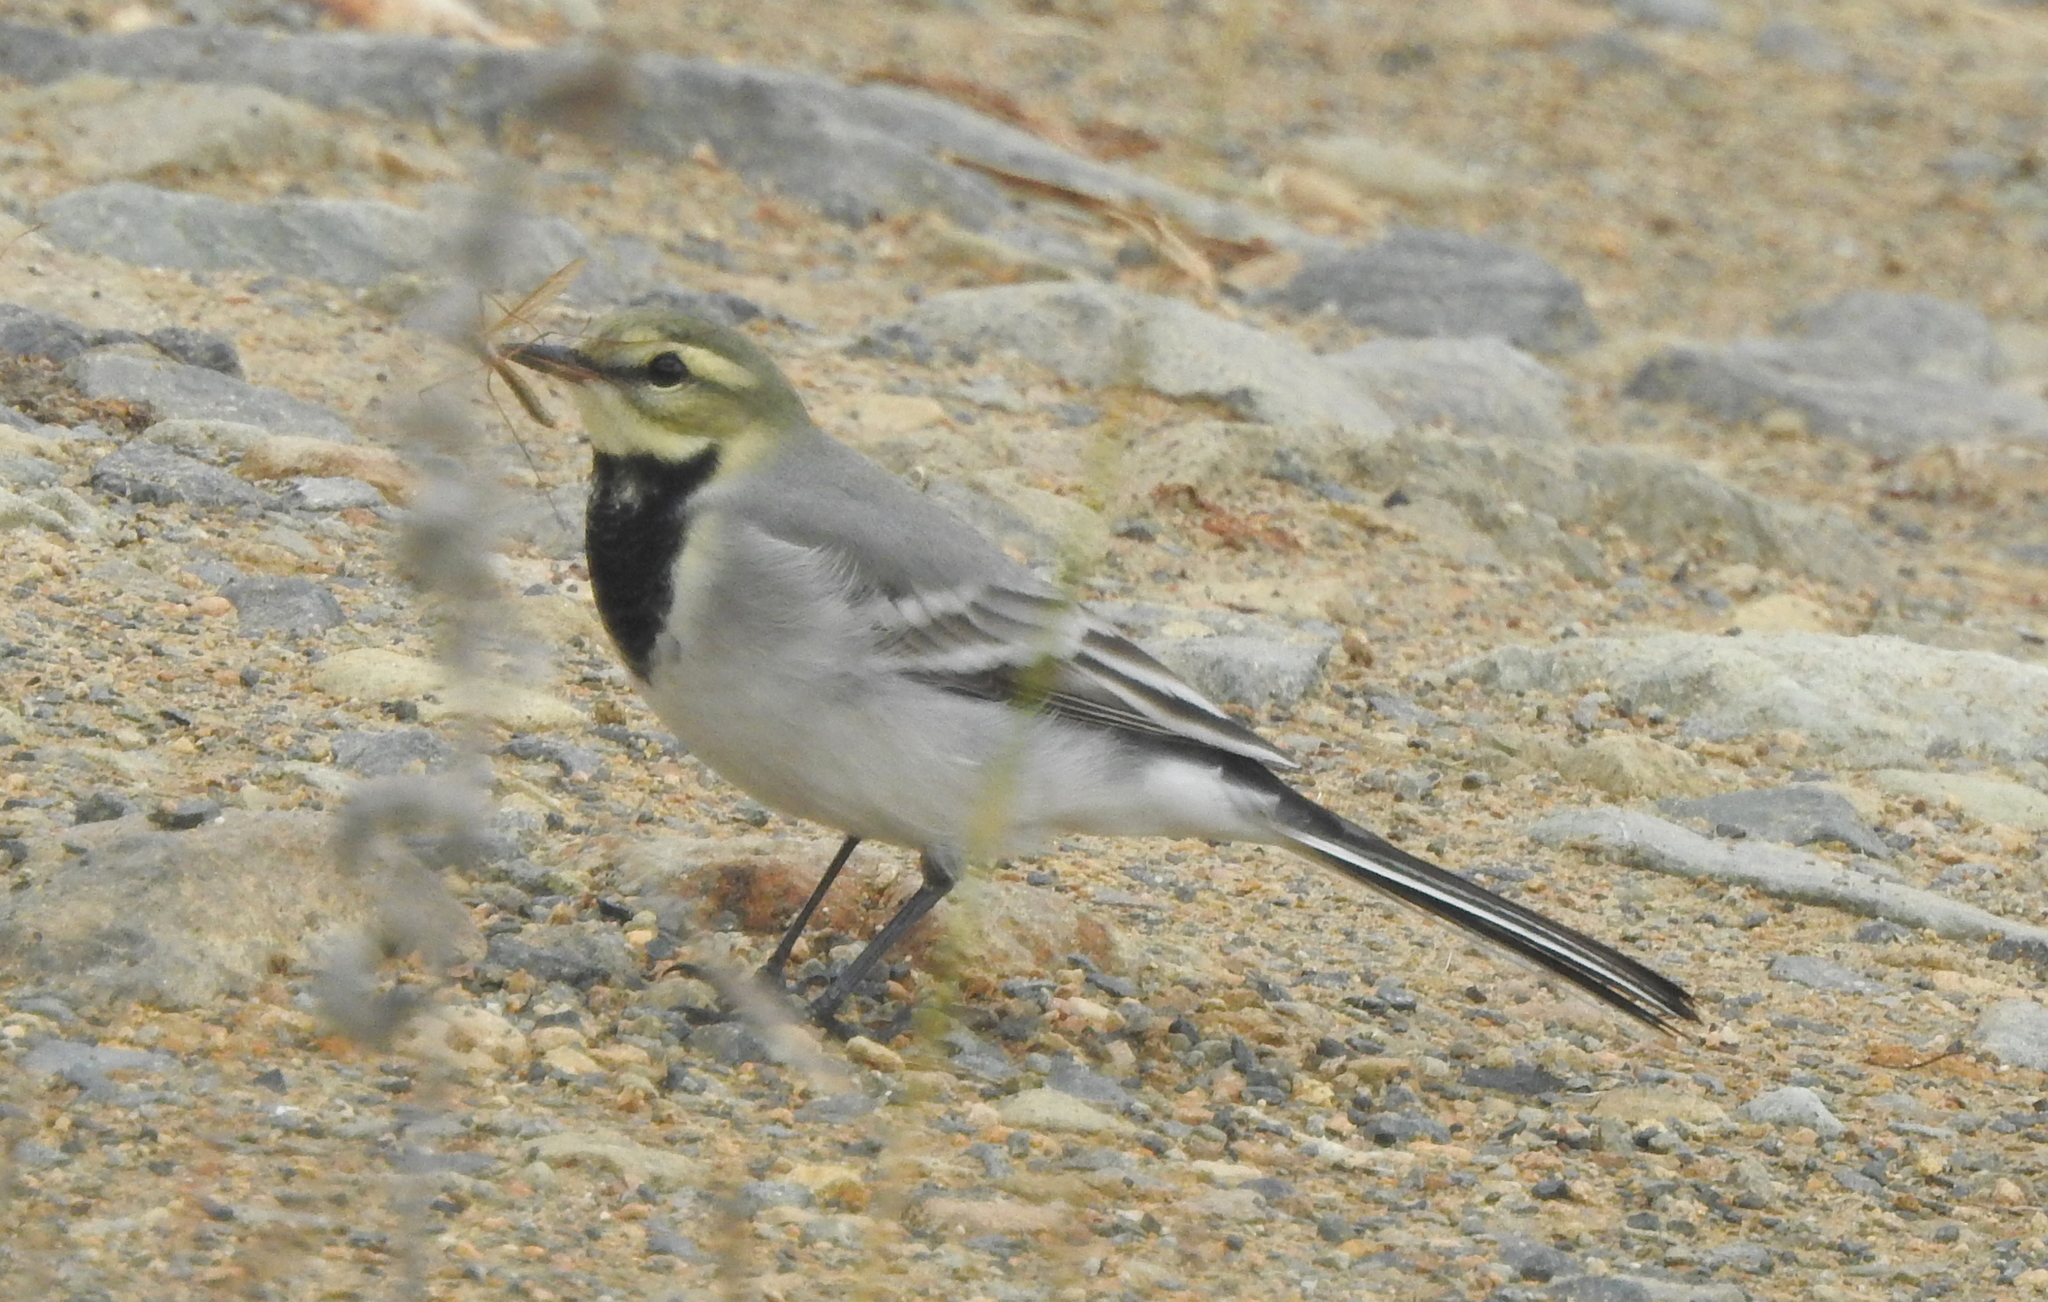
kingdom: Animalia
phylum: Chordata
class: Aves
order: Passeriformes
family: Motacillidae
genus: Motacilla
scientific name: Motacilla alba
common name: White wagtail
